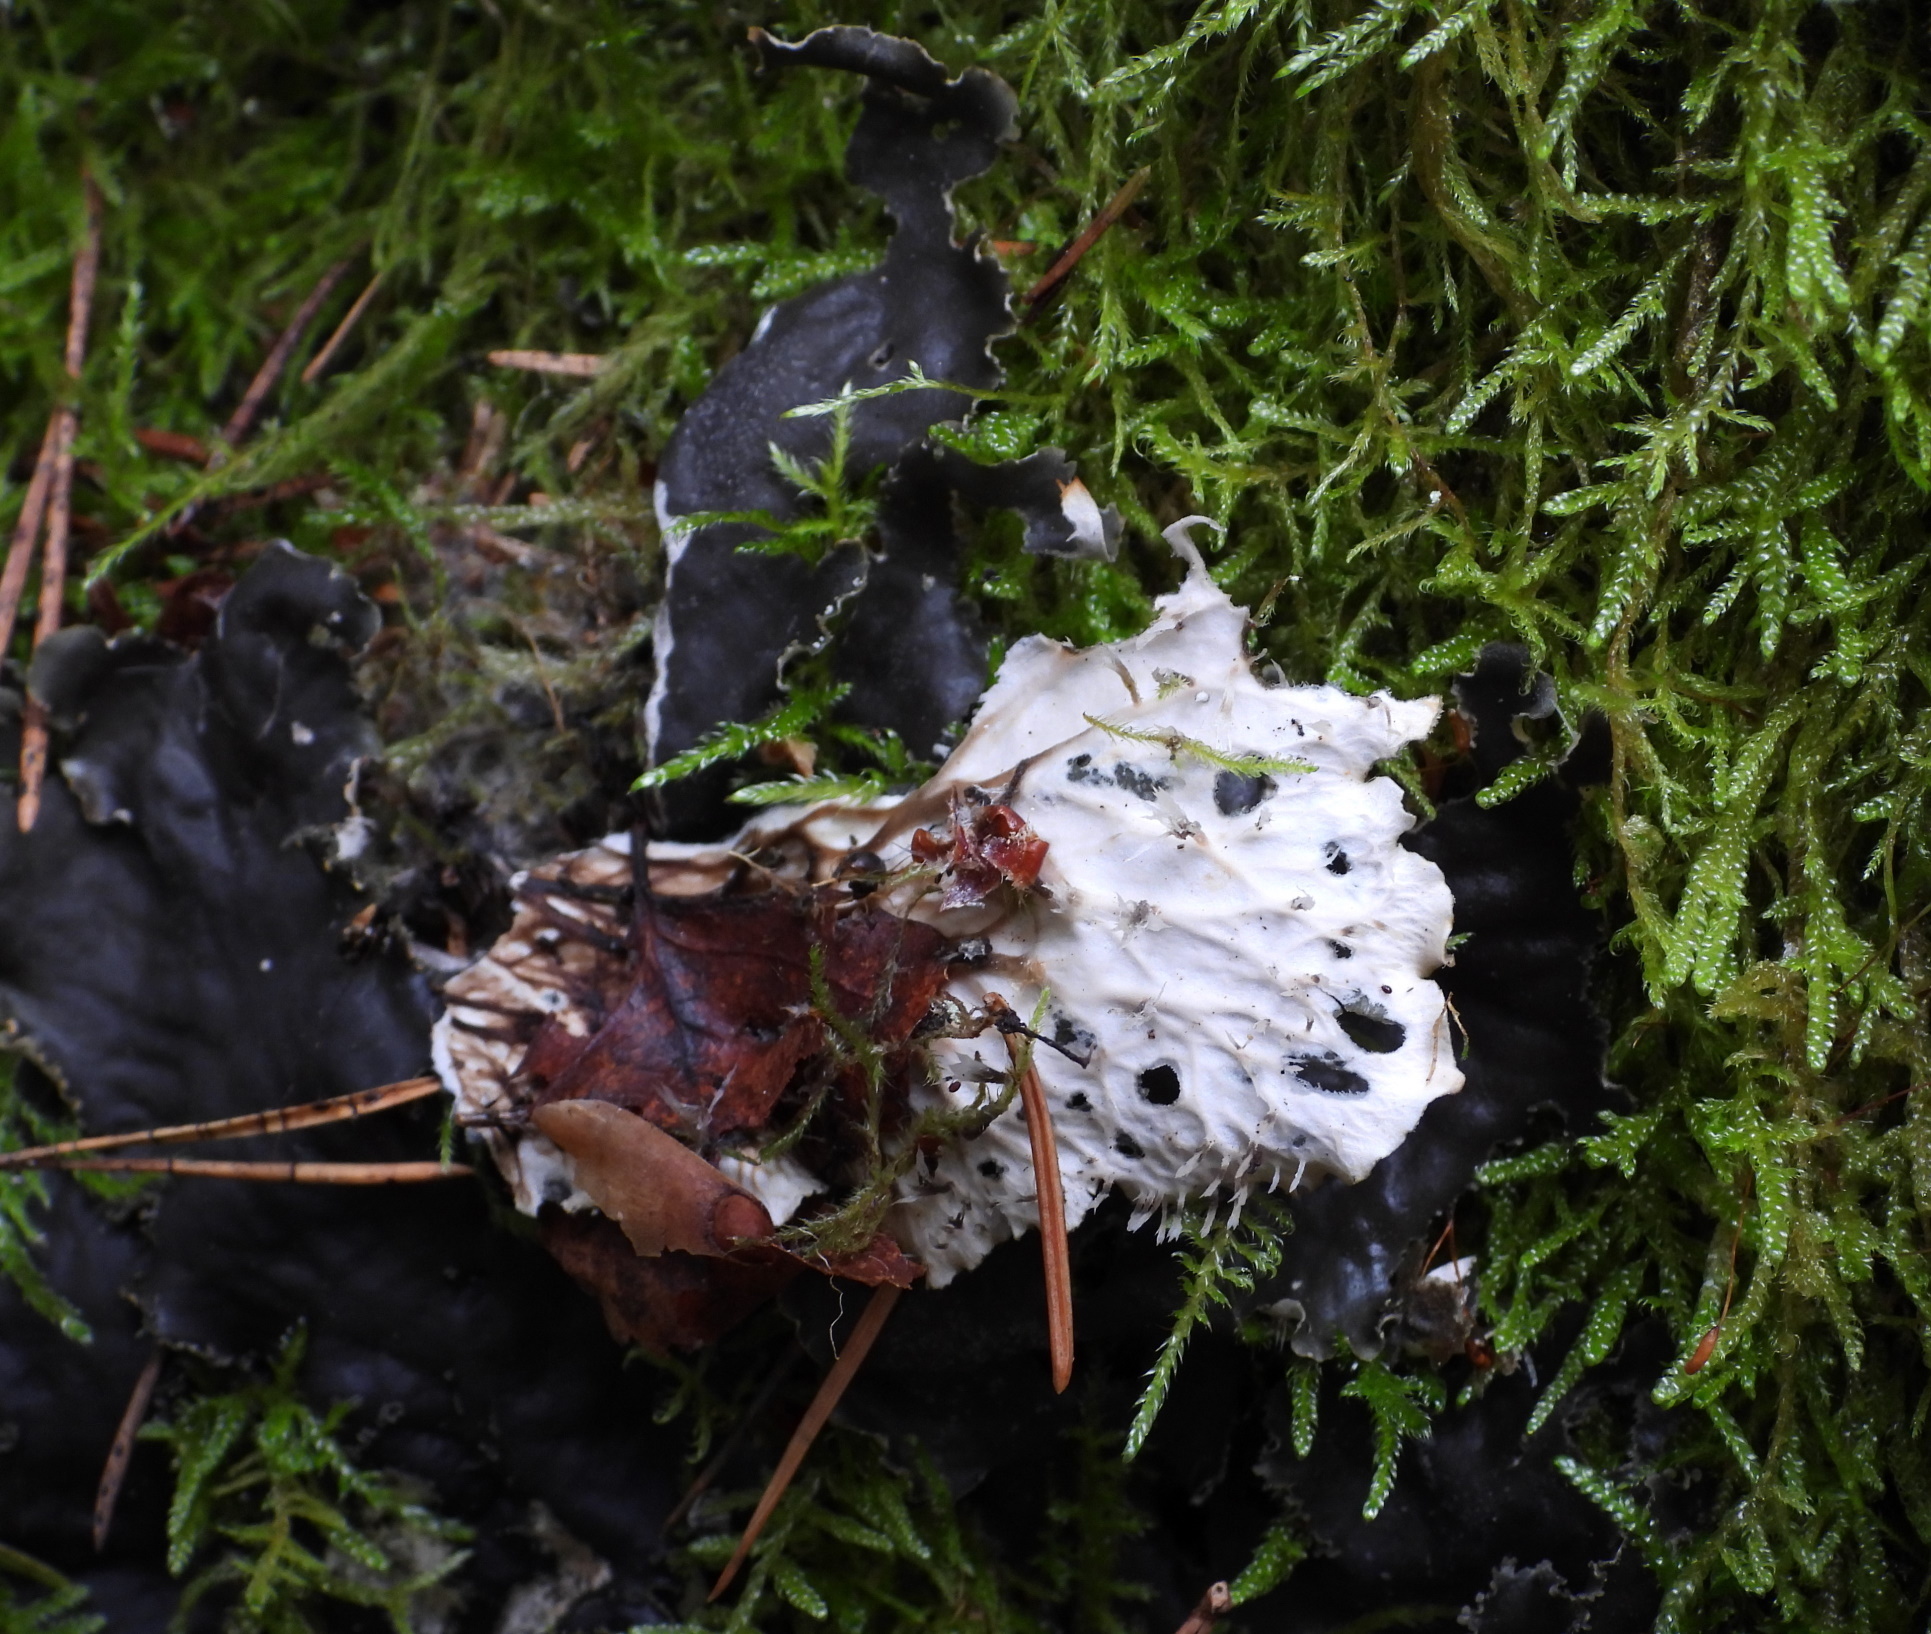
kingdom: Fungi
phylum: Ascomycota
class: Lecanoromycetes
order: Peltigerales
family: Peltigeraceae
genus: Peltigera
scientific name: Peltigera praetextata
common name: Scaly dog-lichen
